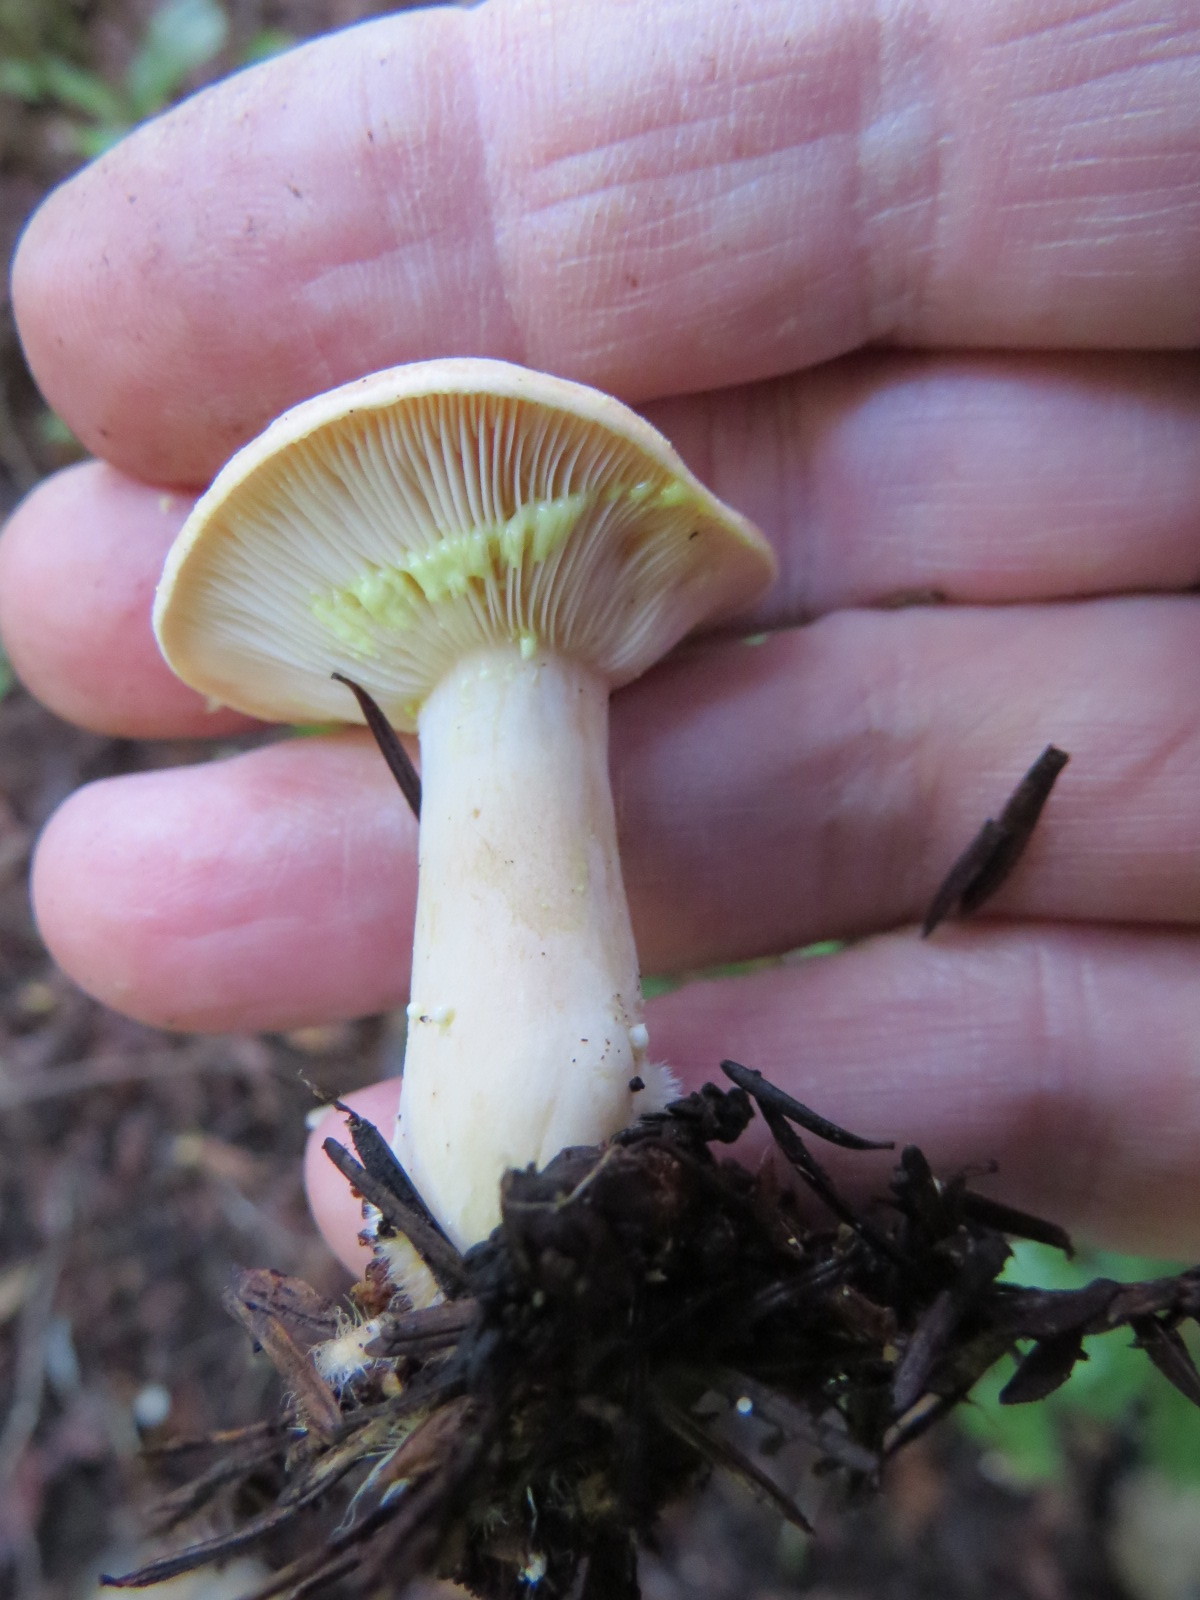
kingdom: Fungi
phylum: Basidiomycota
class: Agaricomycetes
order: Russulales
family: Russulaceae
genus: Lactarius
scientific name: Lactarius xanthogalactus
